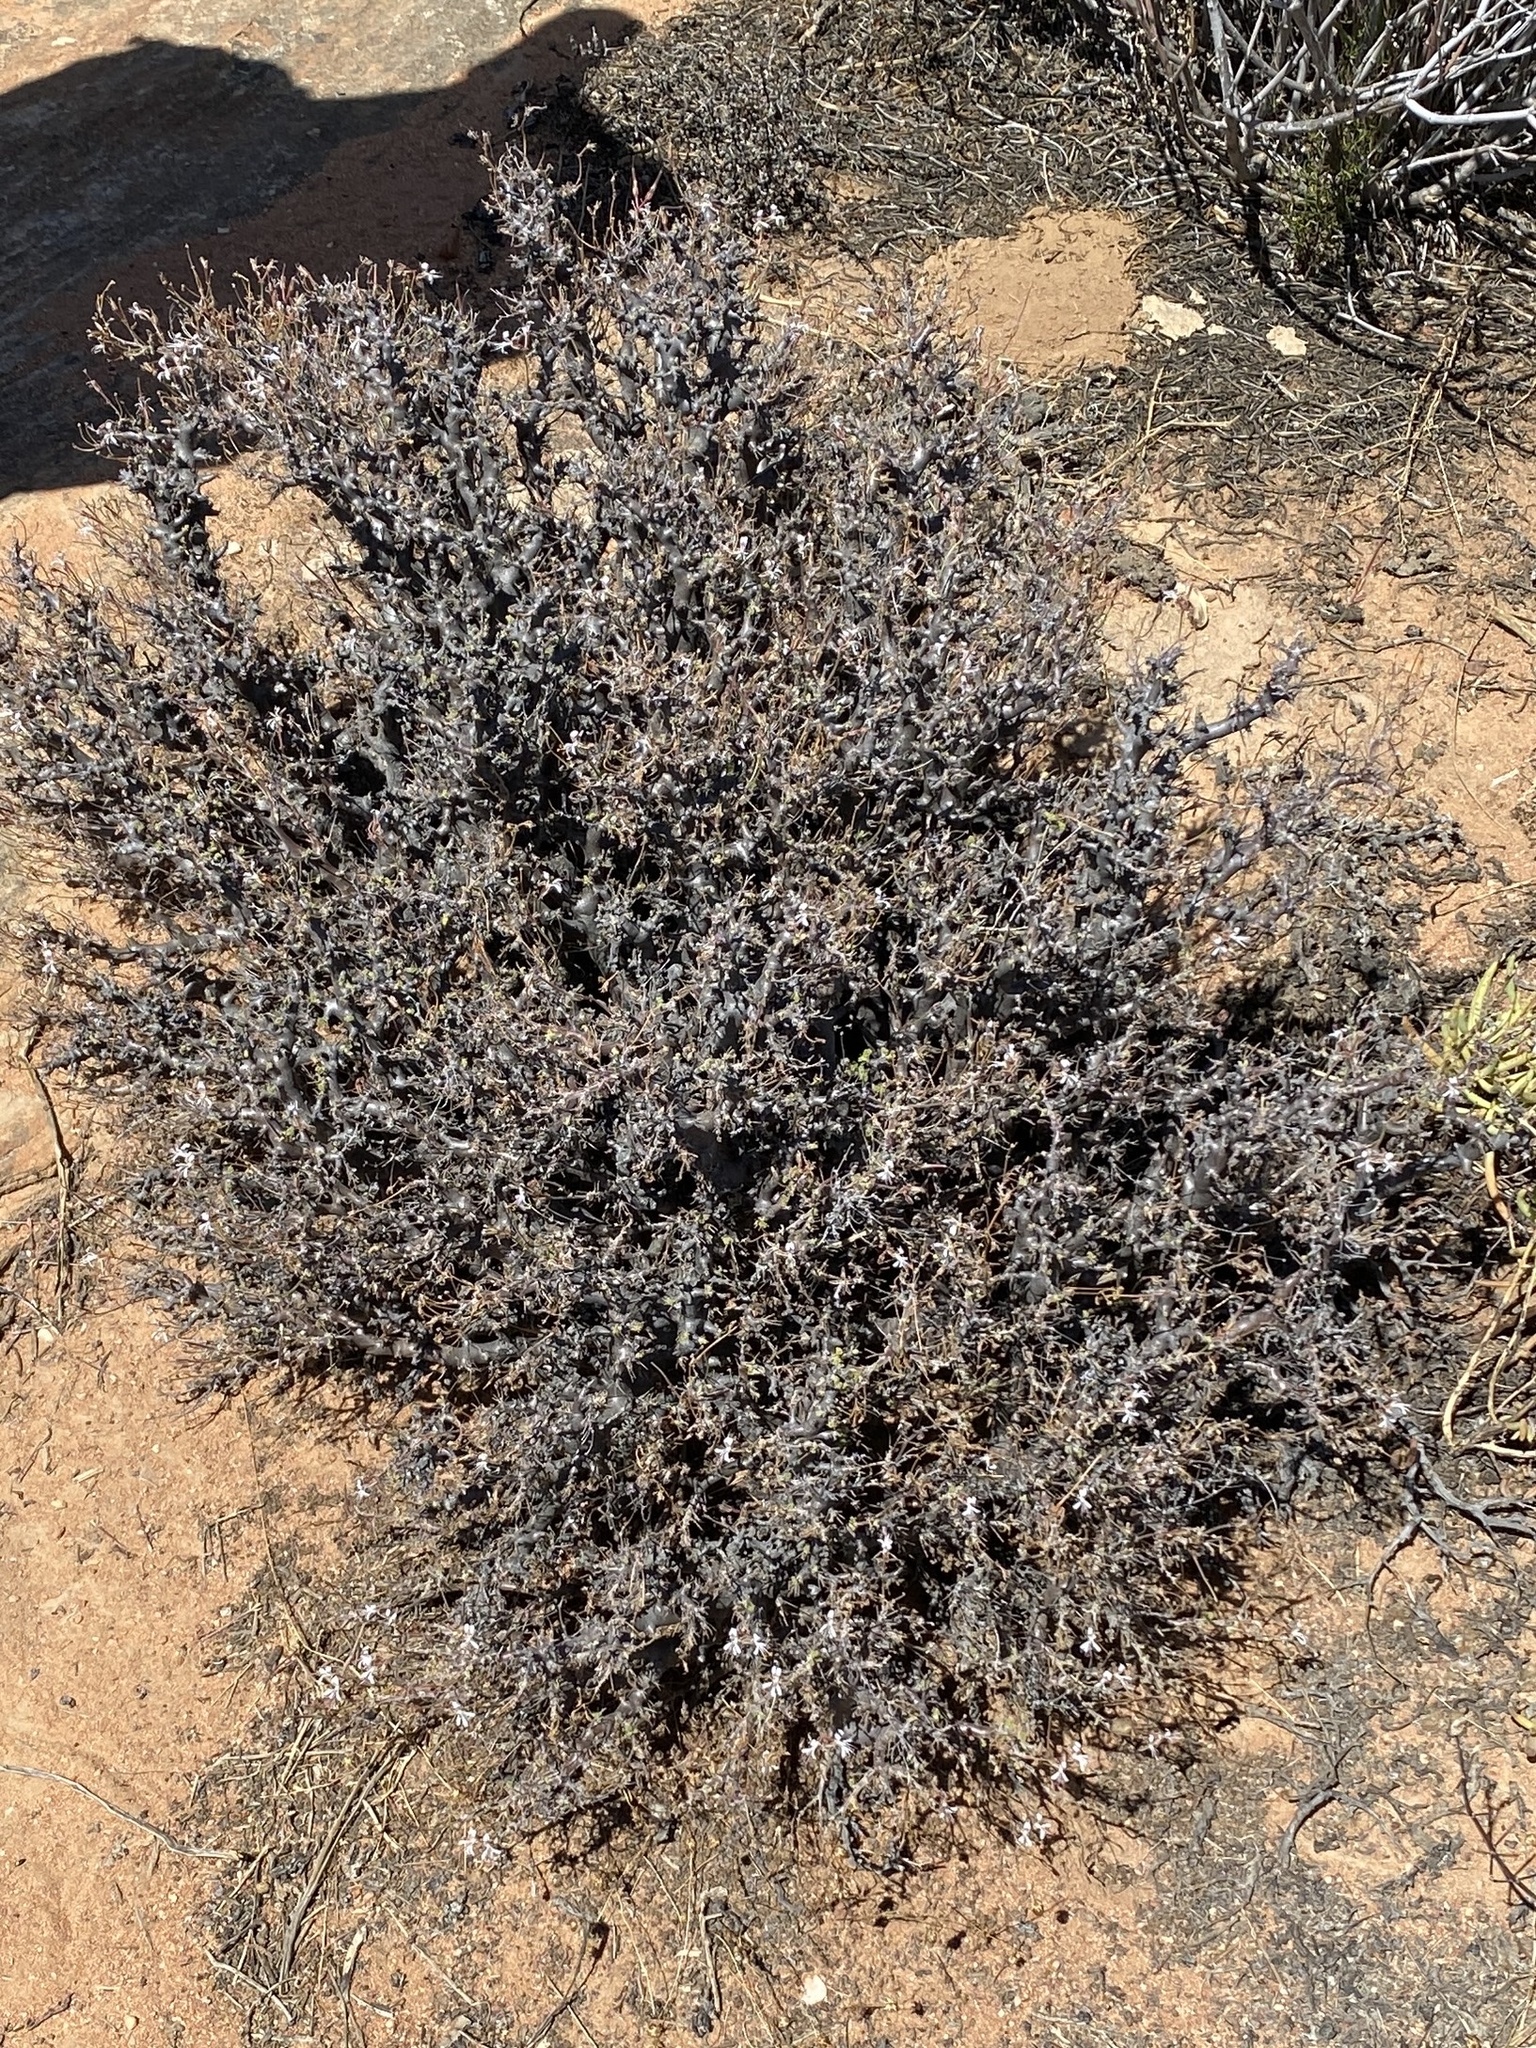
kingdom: Plantae
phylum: Tracheophyta
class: Magnoliopsida
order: Geraniales
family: Geraniaceae
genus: Pelargonium
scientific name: Pelargonium alternans
